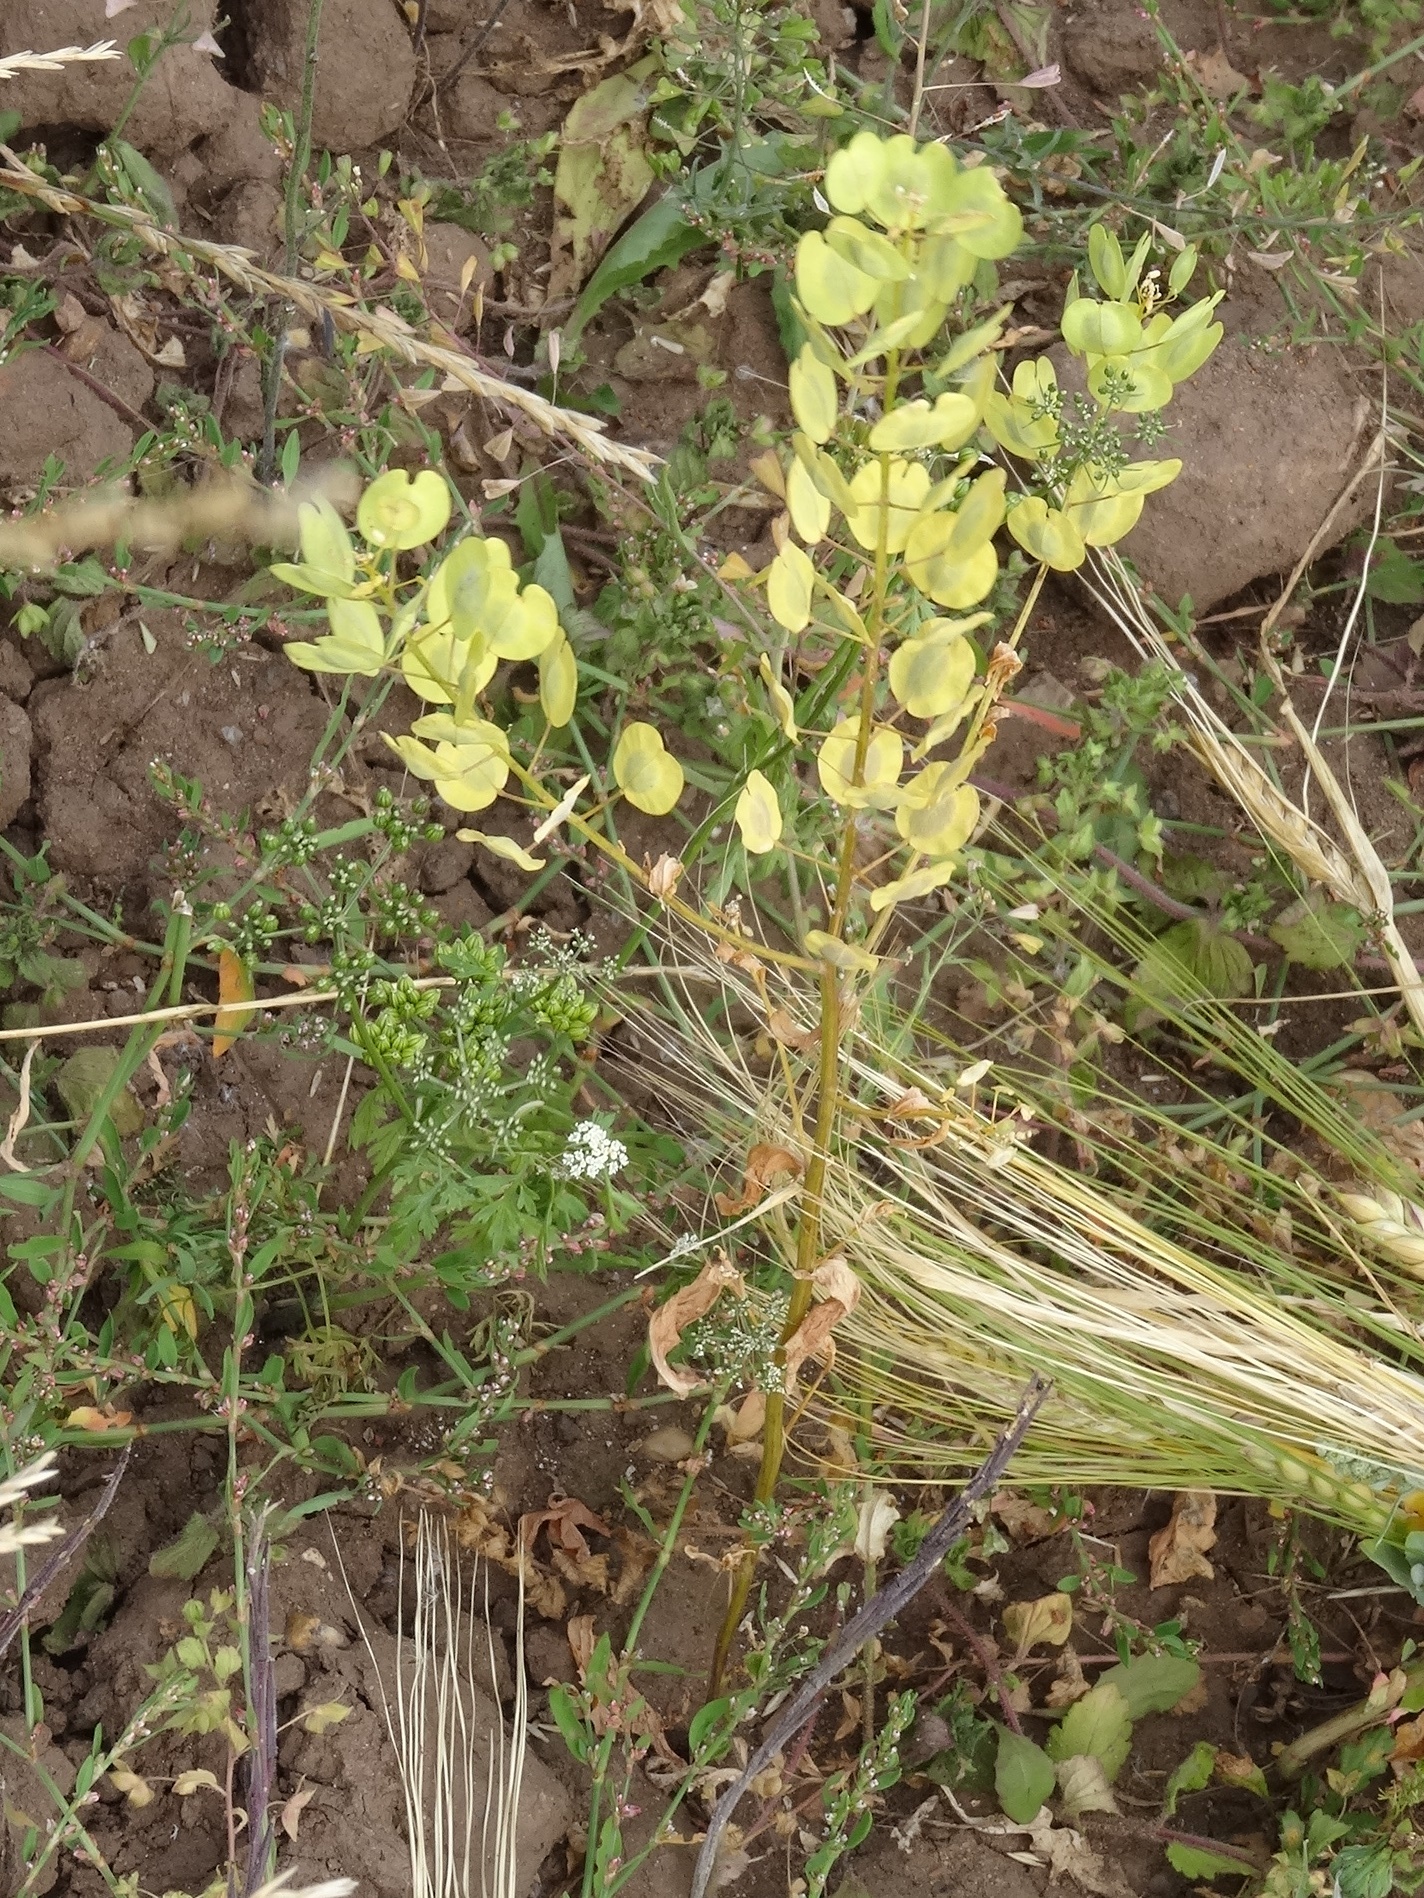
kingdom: Plantae
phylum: Tracheophyta
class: Magnoliopsida
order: Brassicales
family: Brassicaceae
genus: Thlaspi
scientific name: Thlaspi arvense
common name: Field pennycress
